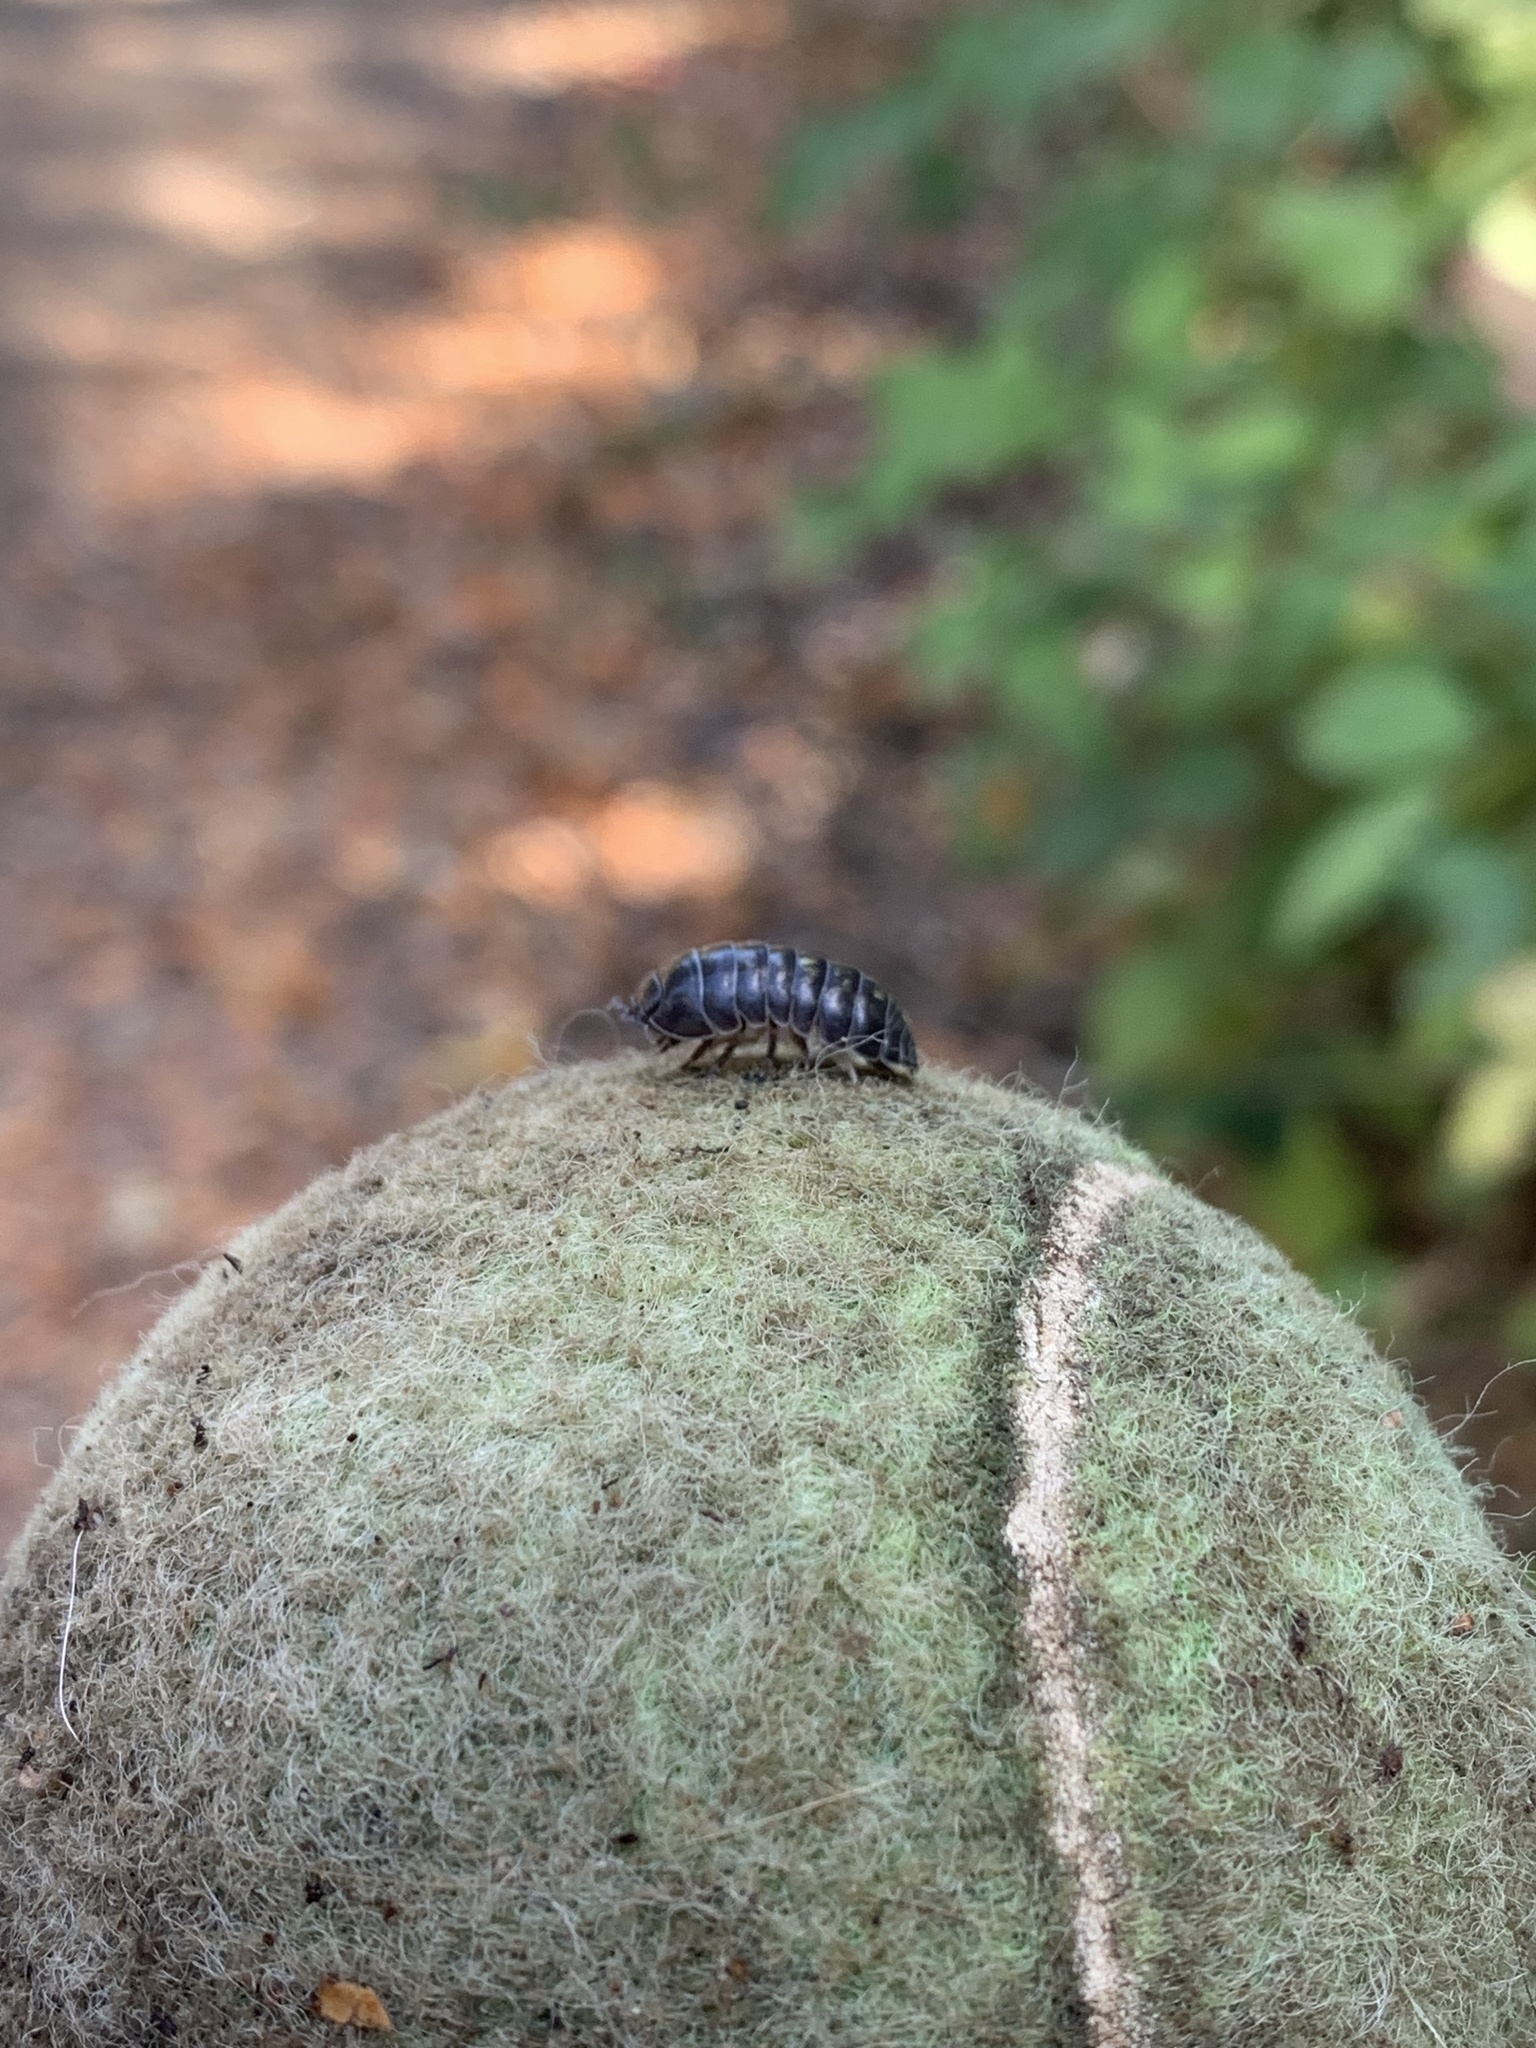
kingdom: Animalia
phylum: Arthropoda
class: Malacostraca
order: Isopoda
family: Armadillidiidae
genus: Armadillidium
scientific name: Armadillidium vulgare
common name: Common pill woodlouse
